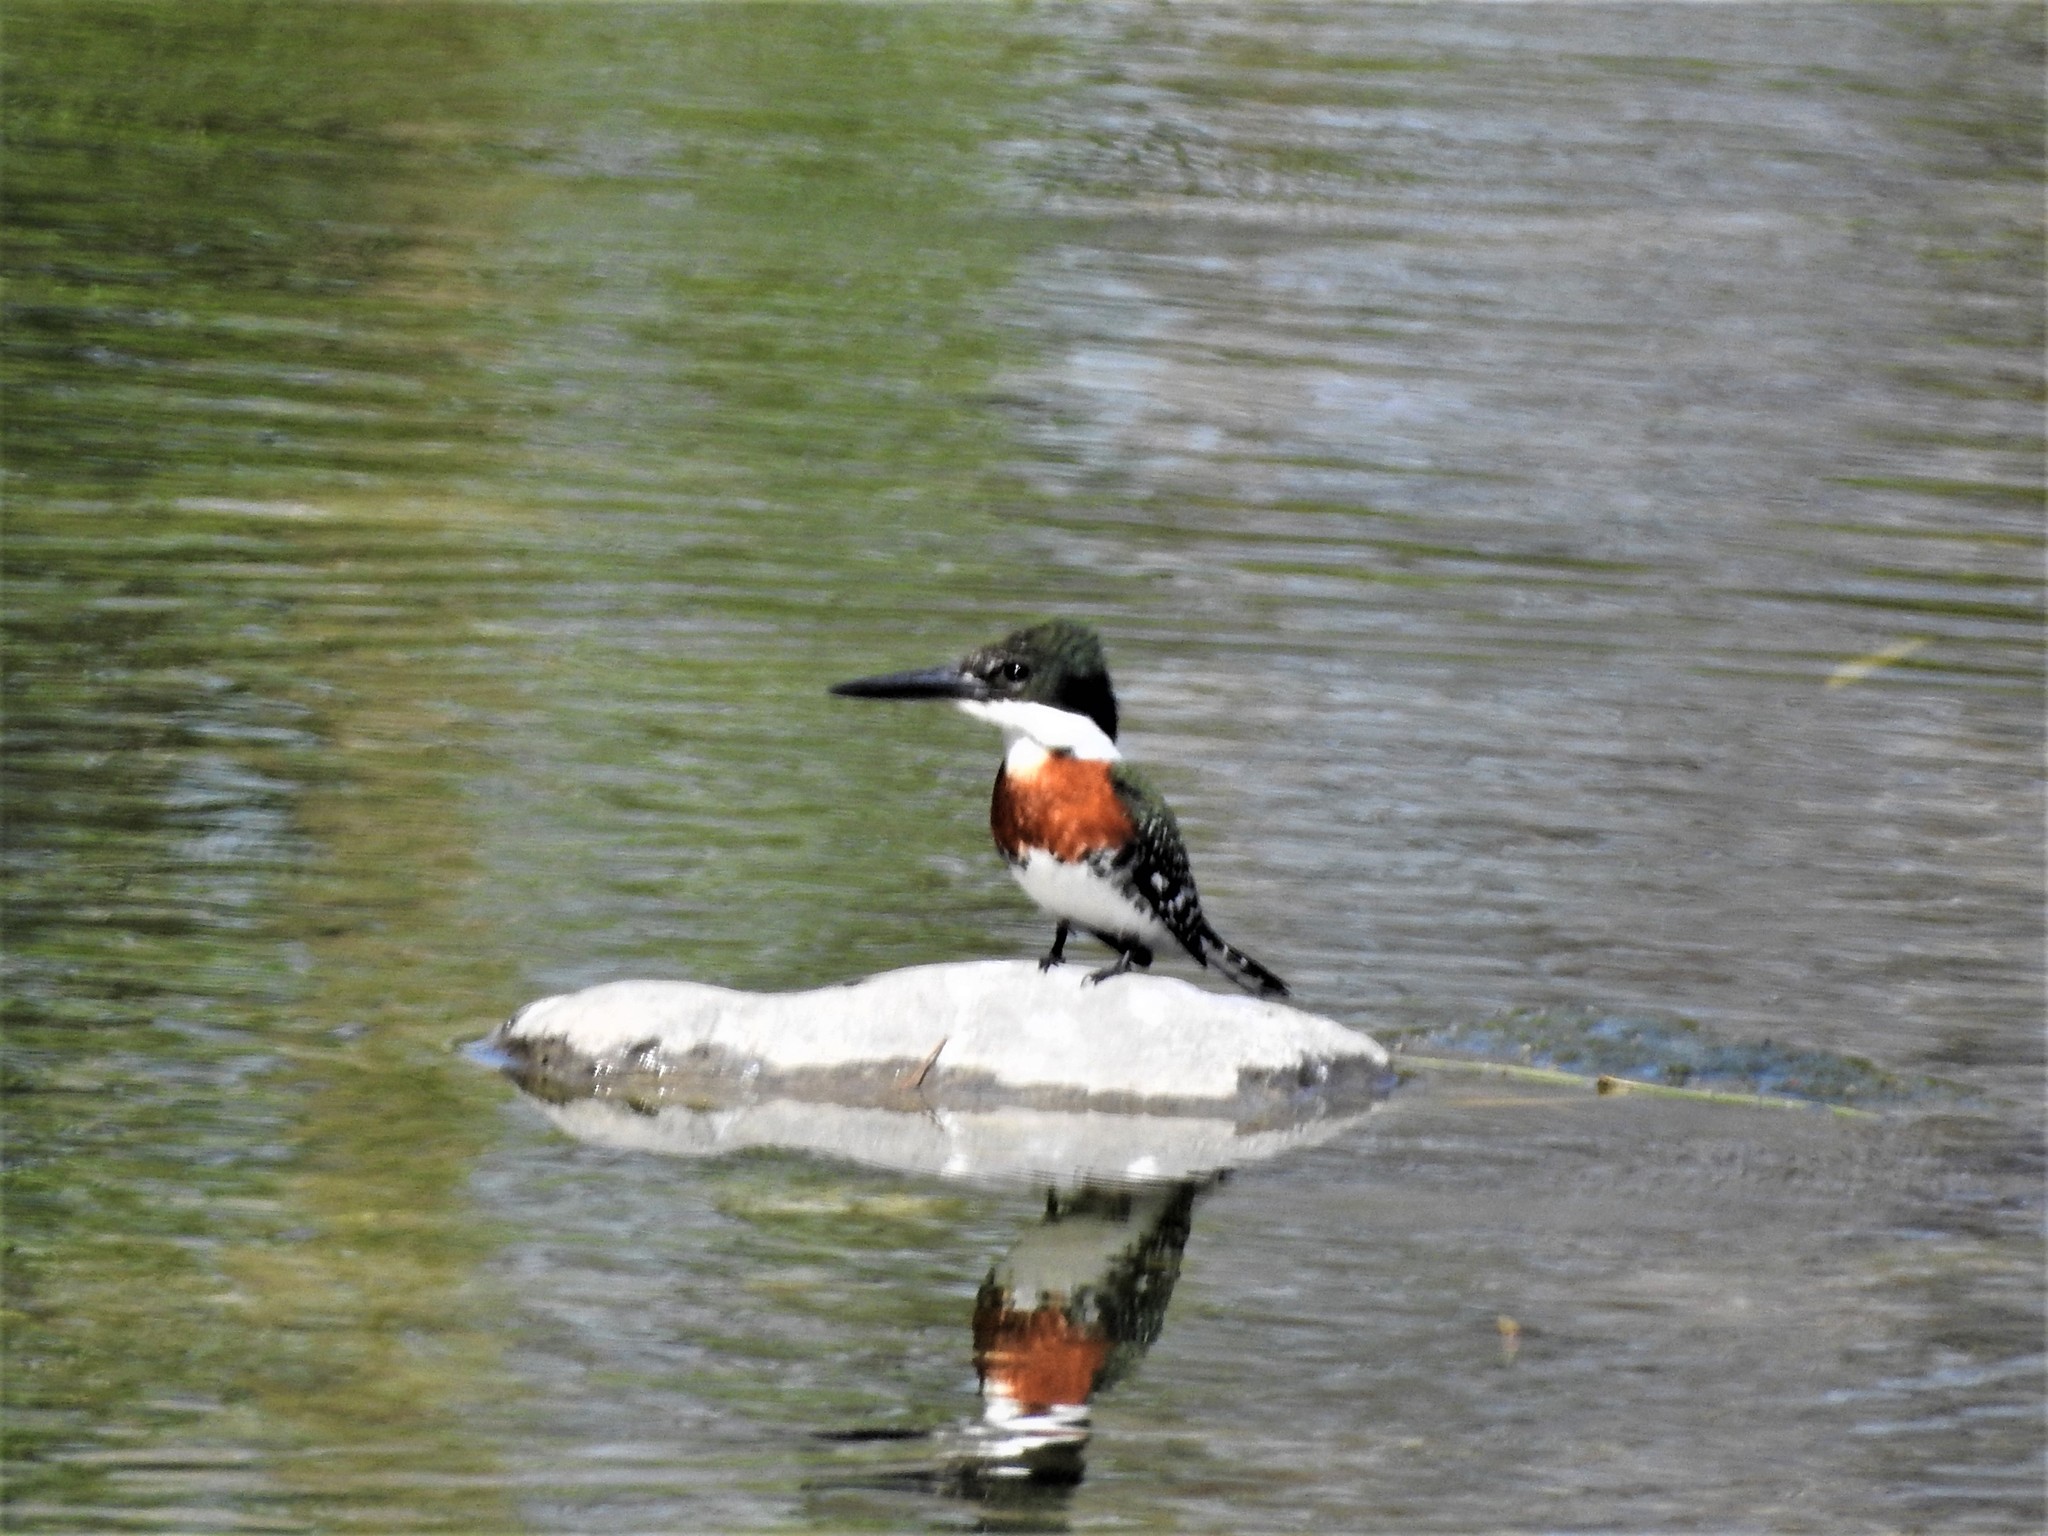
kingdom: Animalia
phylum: Chordata
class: Aves
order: Coraciiformes
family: Alcedinidae
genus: Chloroceryle
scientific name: Chloroceryle americana
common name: Green kingfisher
